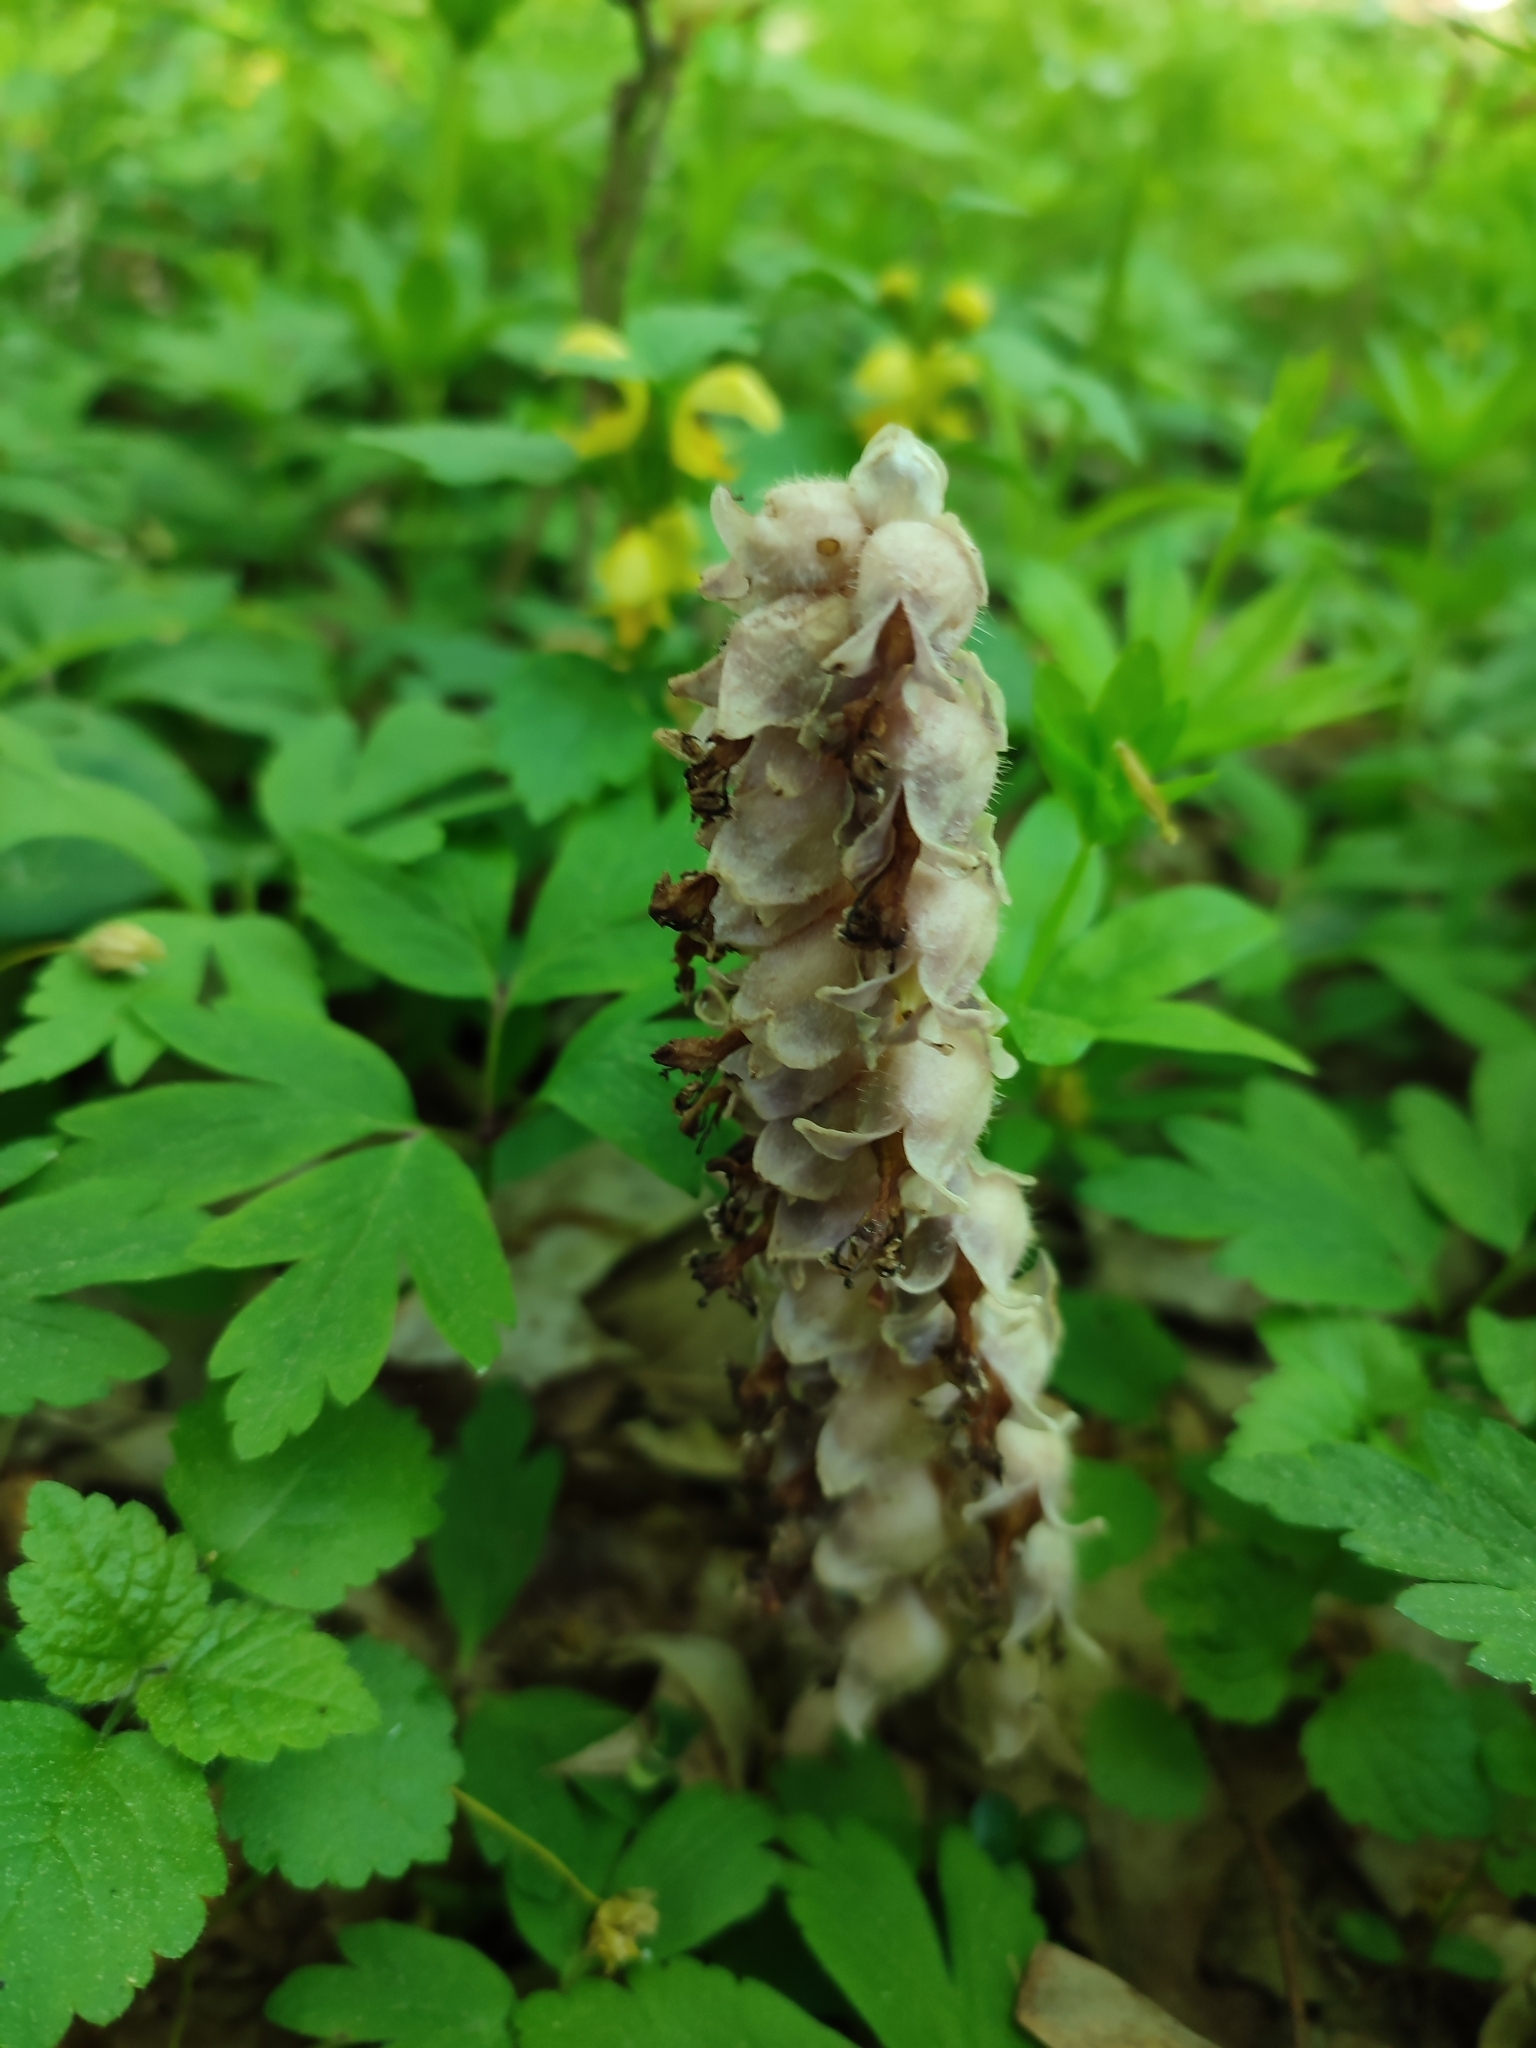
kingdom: Plantae
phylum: Tracheophyta
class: Magnoliopsida
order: Lamiales
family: Orobanchaceae
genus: Lathraea
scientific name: Lathraea squamaria
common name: Toothwort
